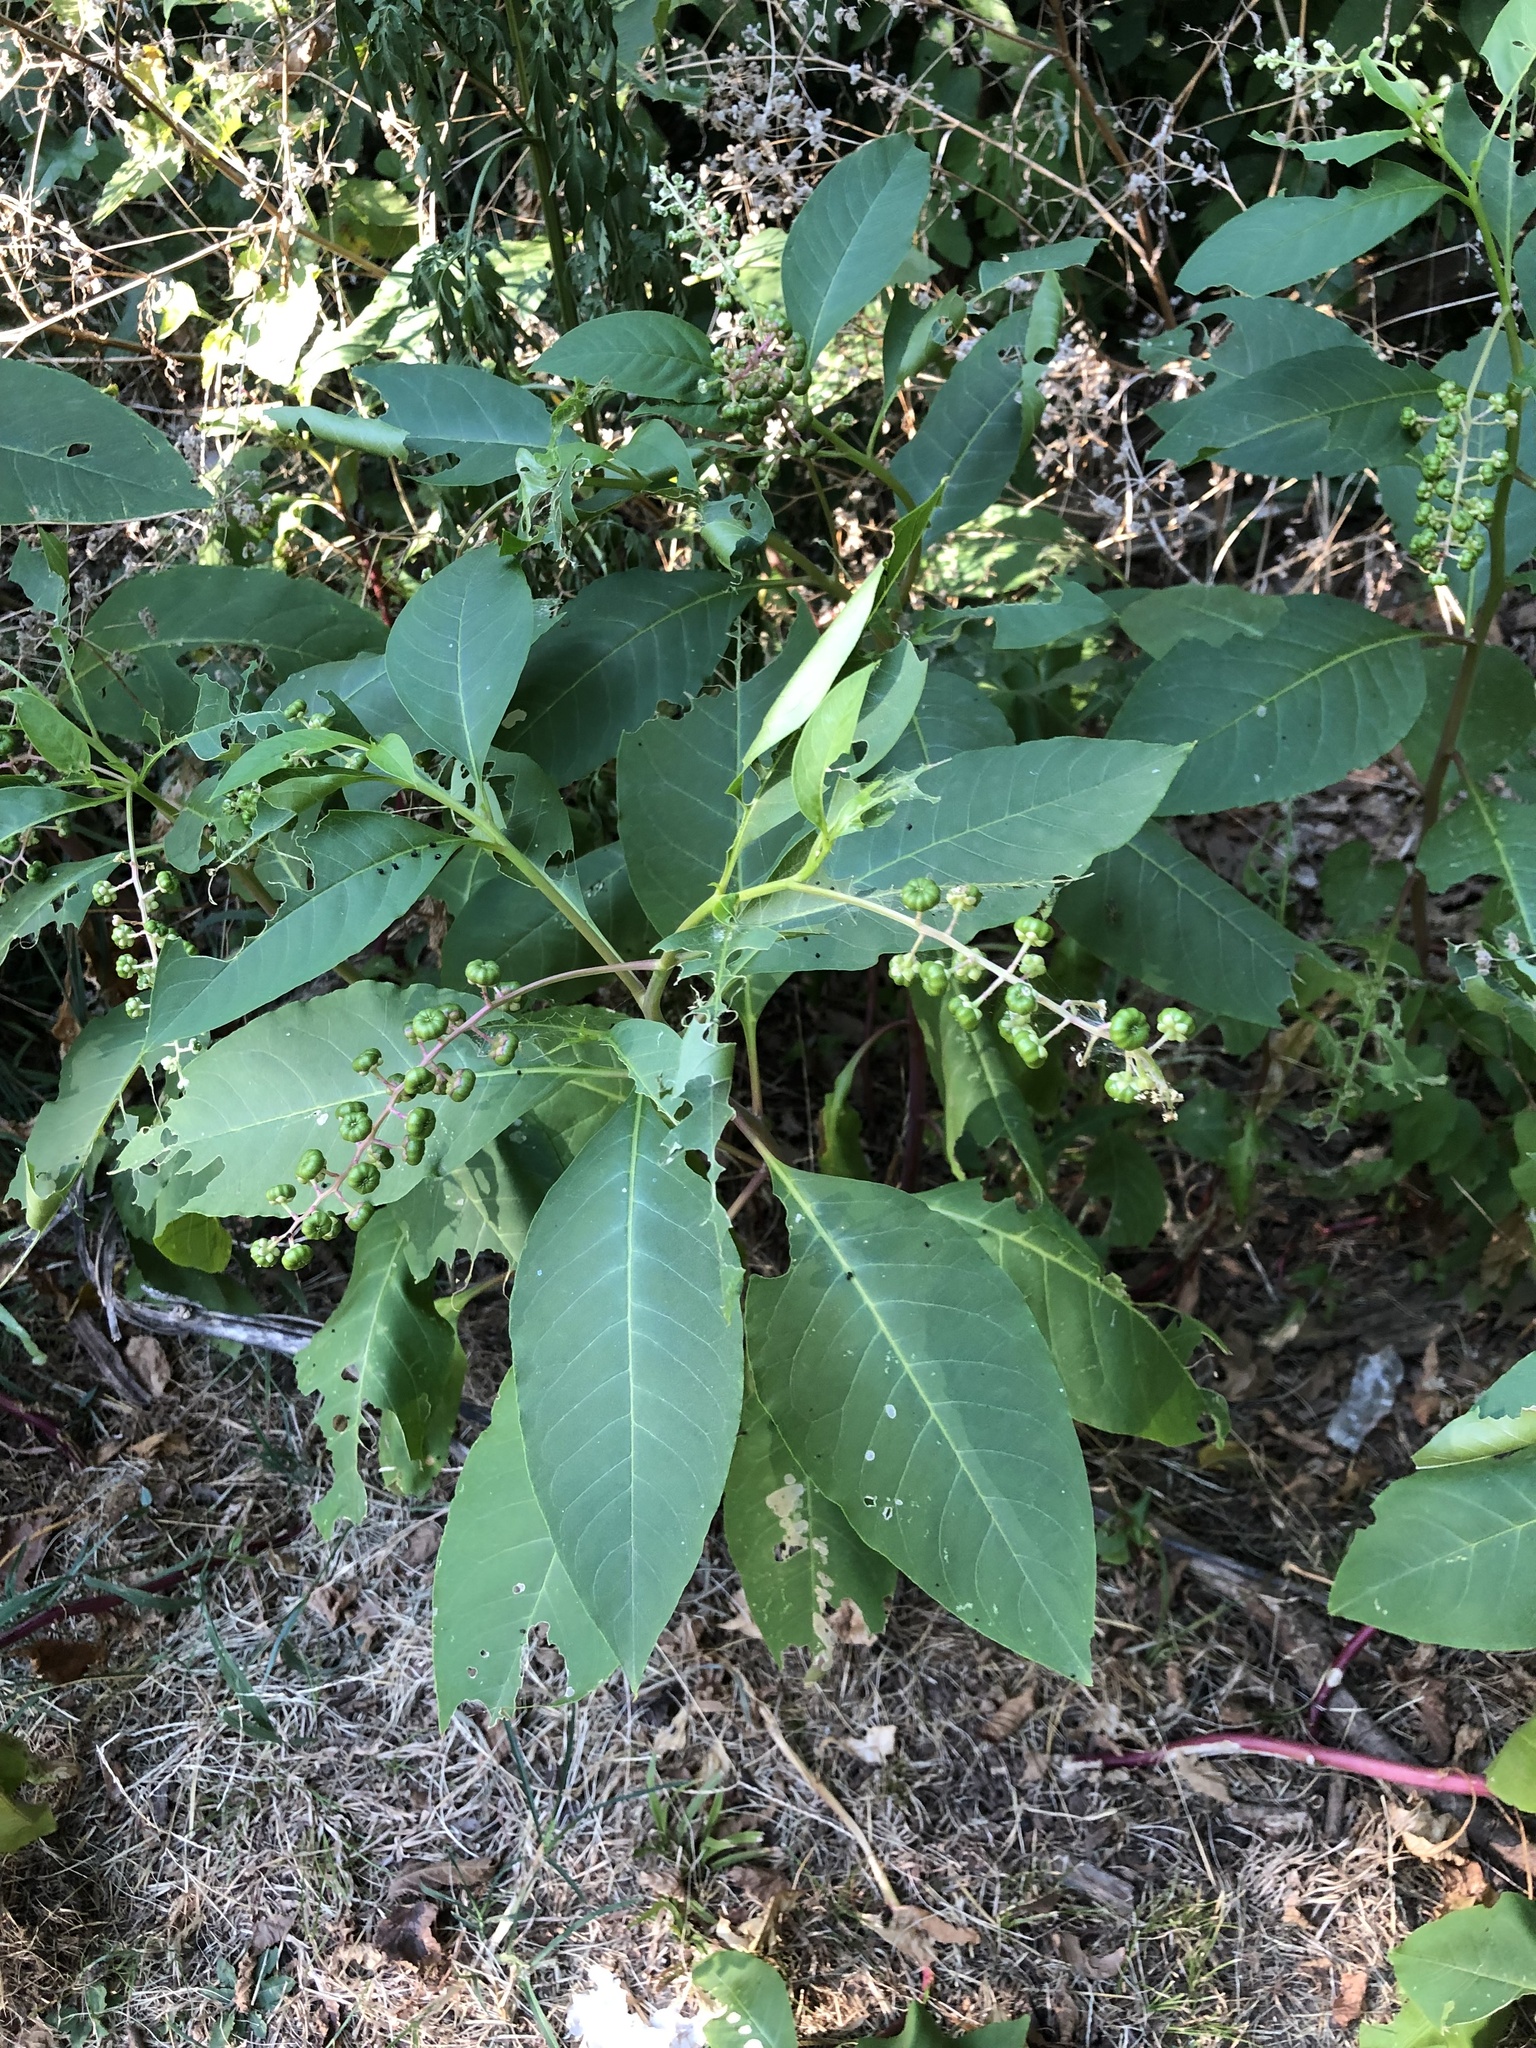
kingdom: Plantae
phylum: Tracheophyta
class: Magnoliopsida
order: Caryophyllales
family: Phytolaccaceae
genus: Phytolacca
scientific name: Phytolacca americana
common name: American pokeweed
